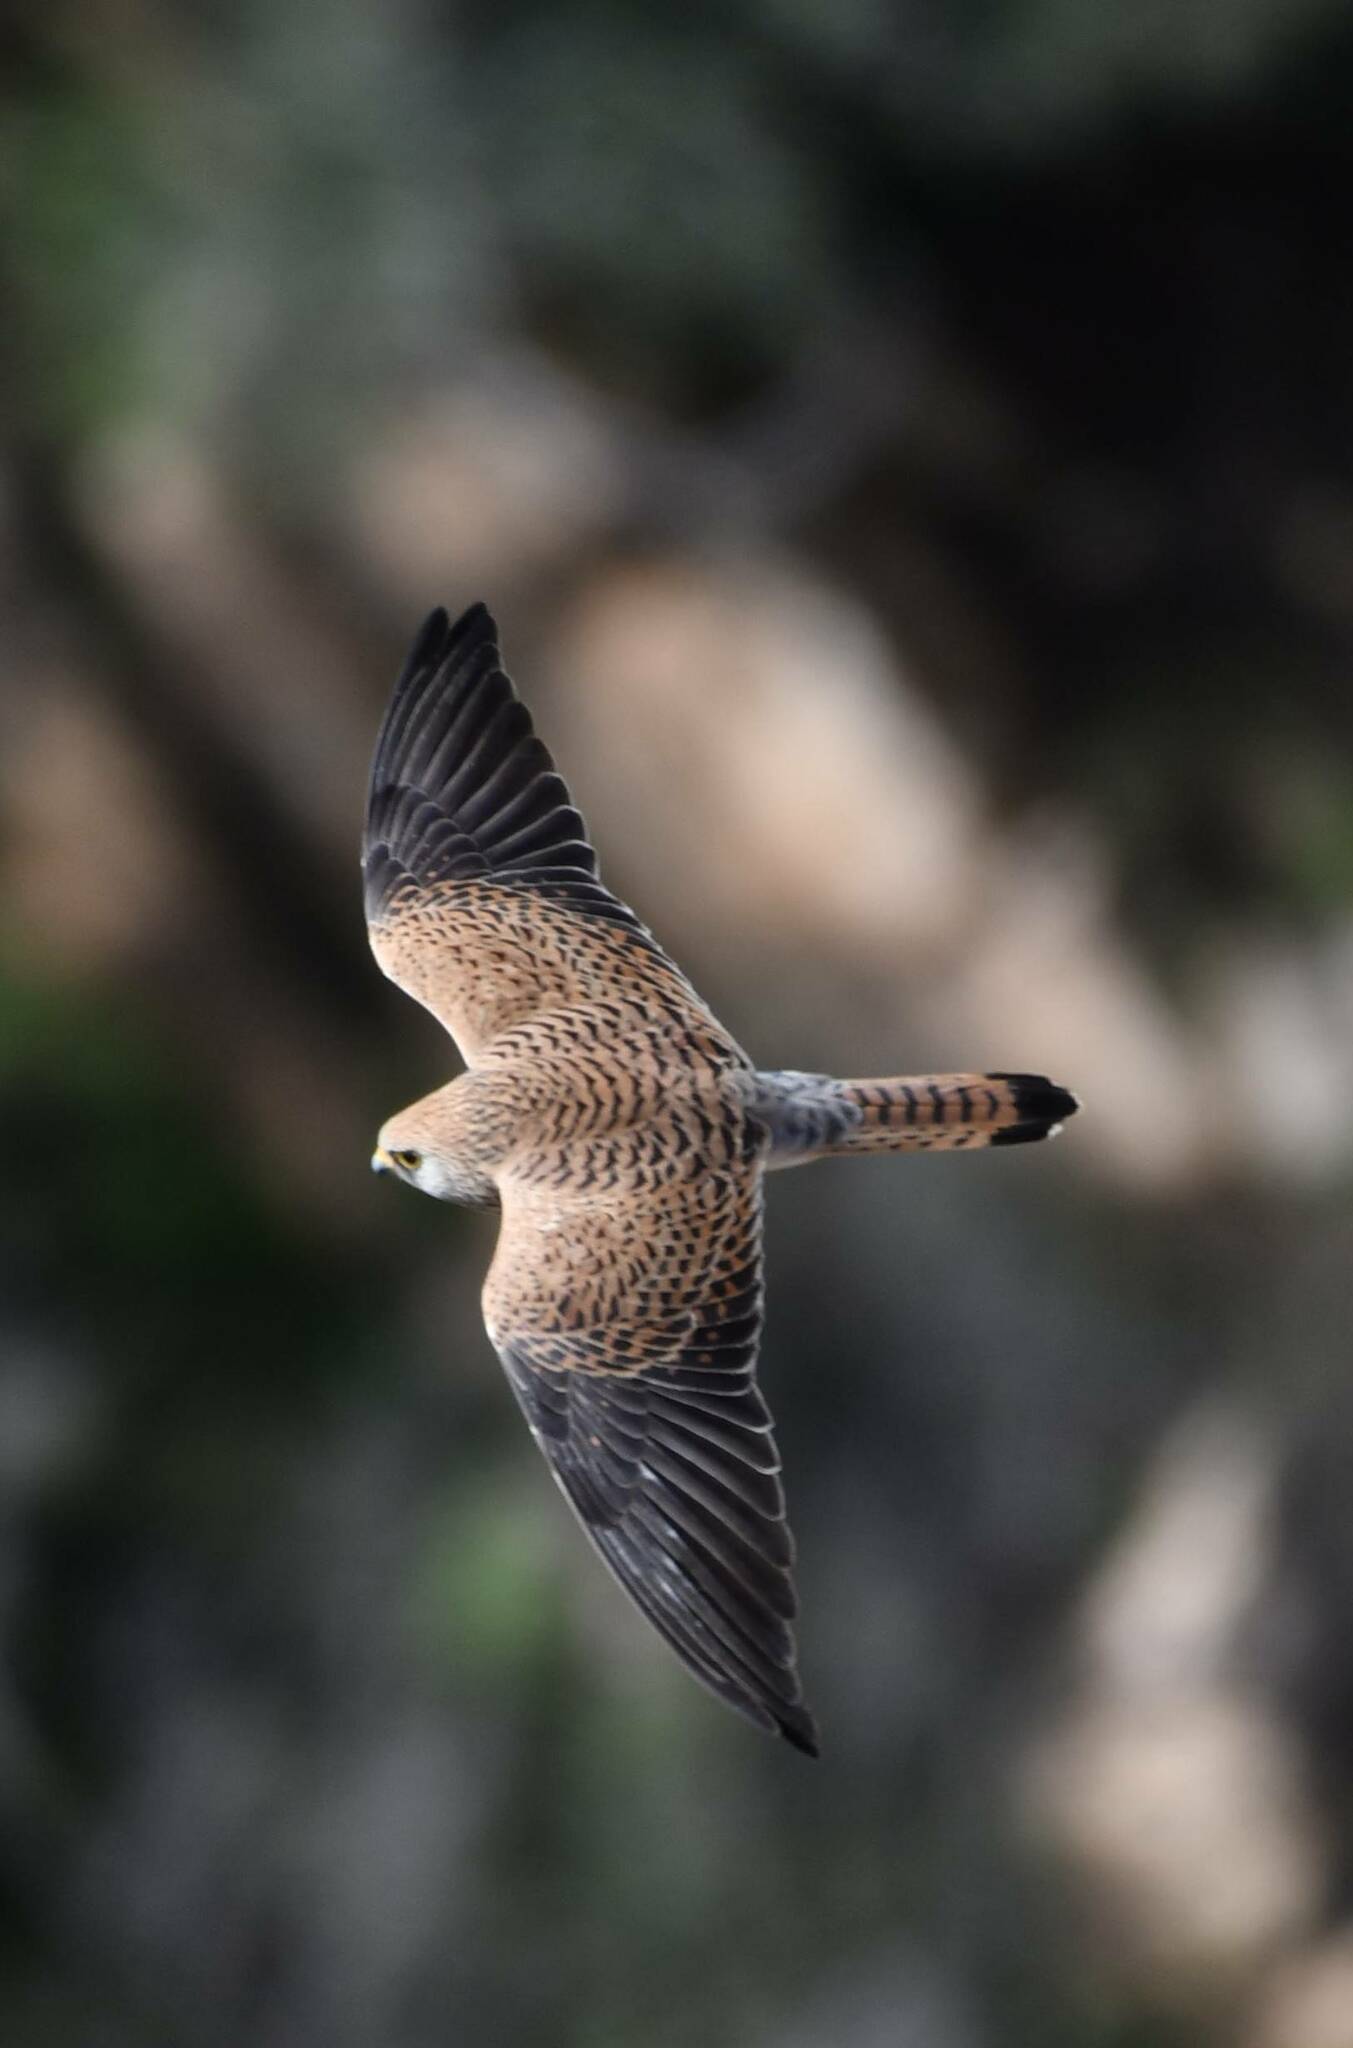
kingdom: Animalia
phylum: Chordata
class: Aves
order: Falconiformes
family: Falconidae
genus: Falco
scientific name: Falco tinnunculus
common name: Common kestrel
